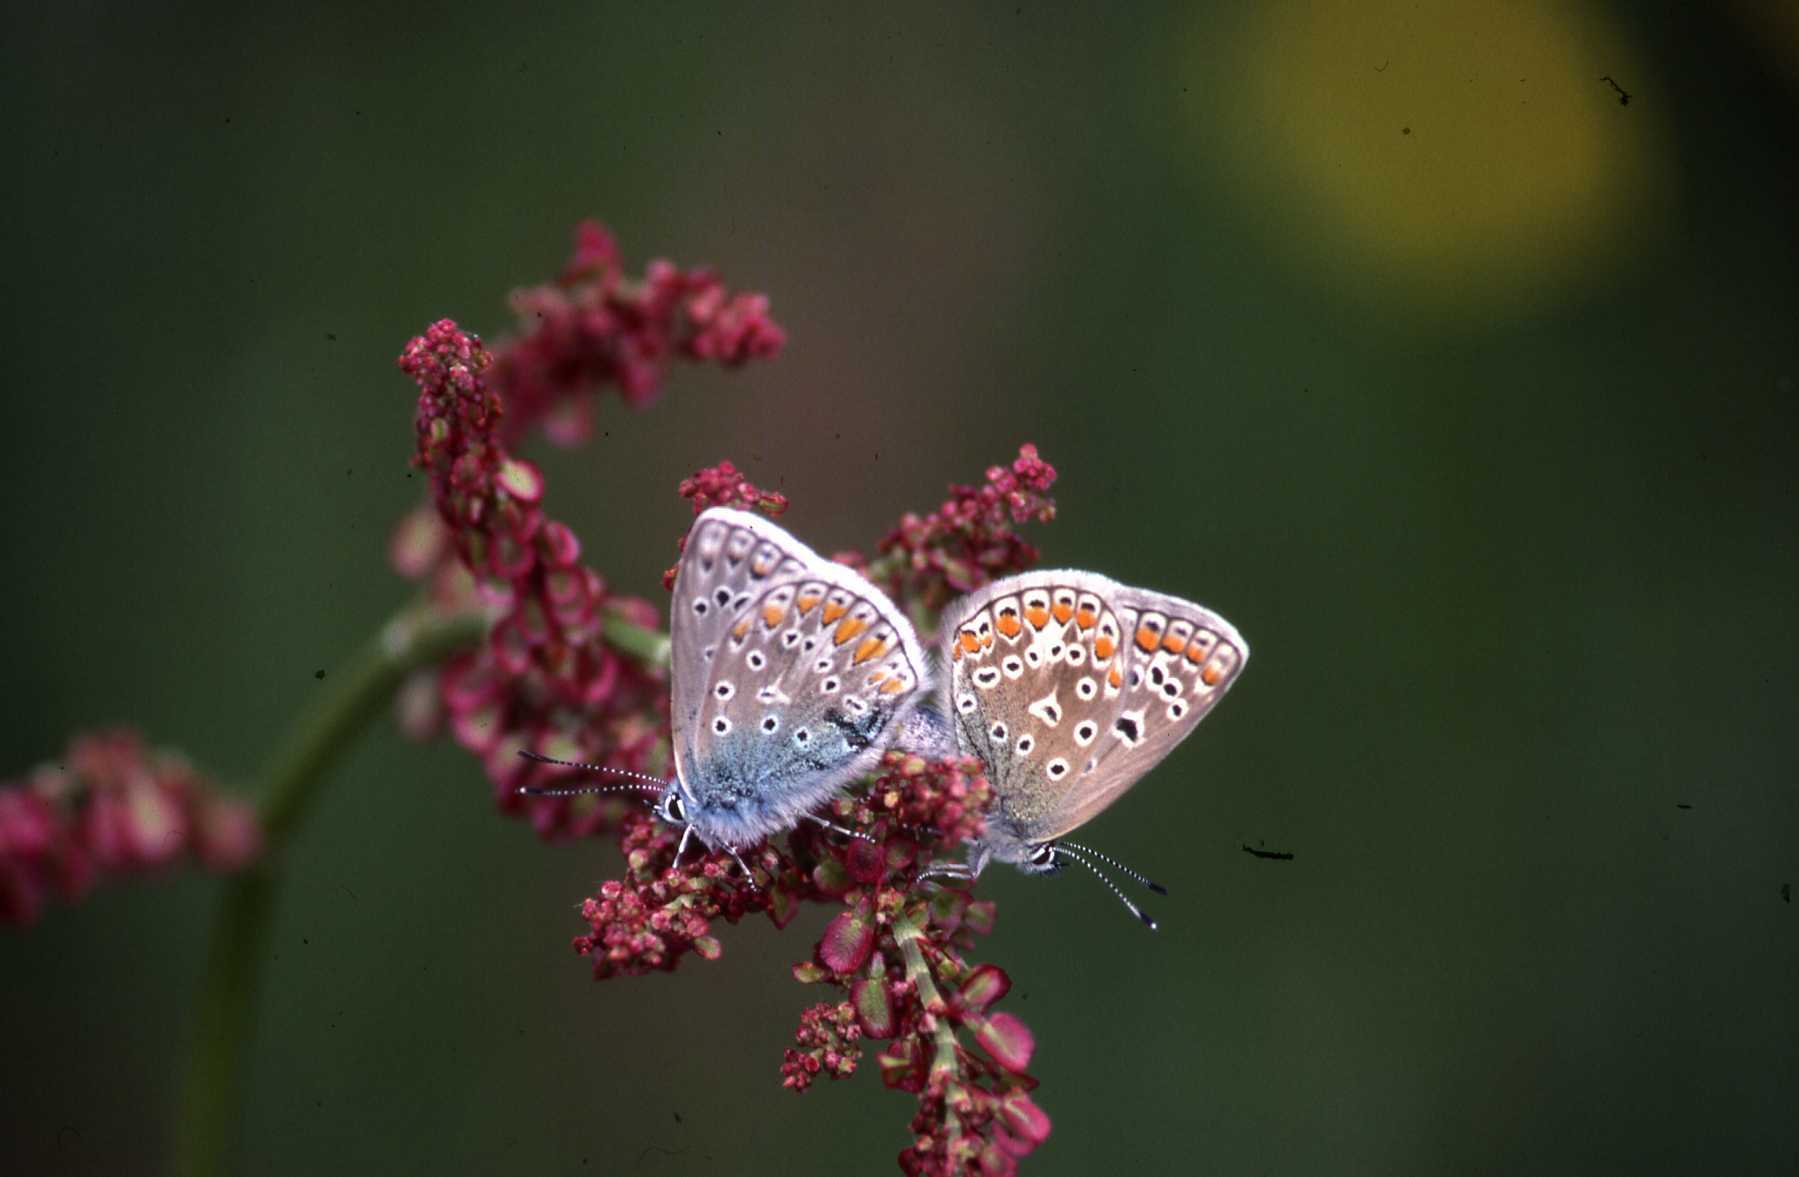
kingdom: Animalia
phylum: Arthropoda
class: Insecta
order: Lepidoptera
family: Lycaenidae
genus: Polyommatus
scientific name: Polyommatus icarus
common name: Common blue
